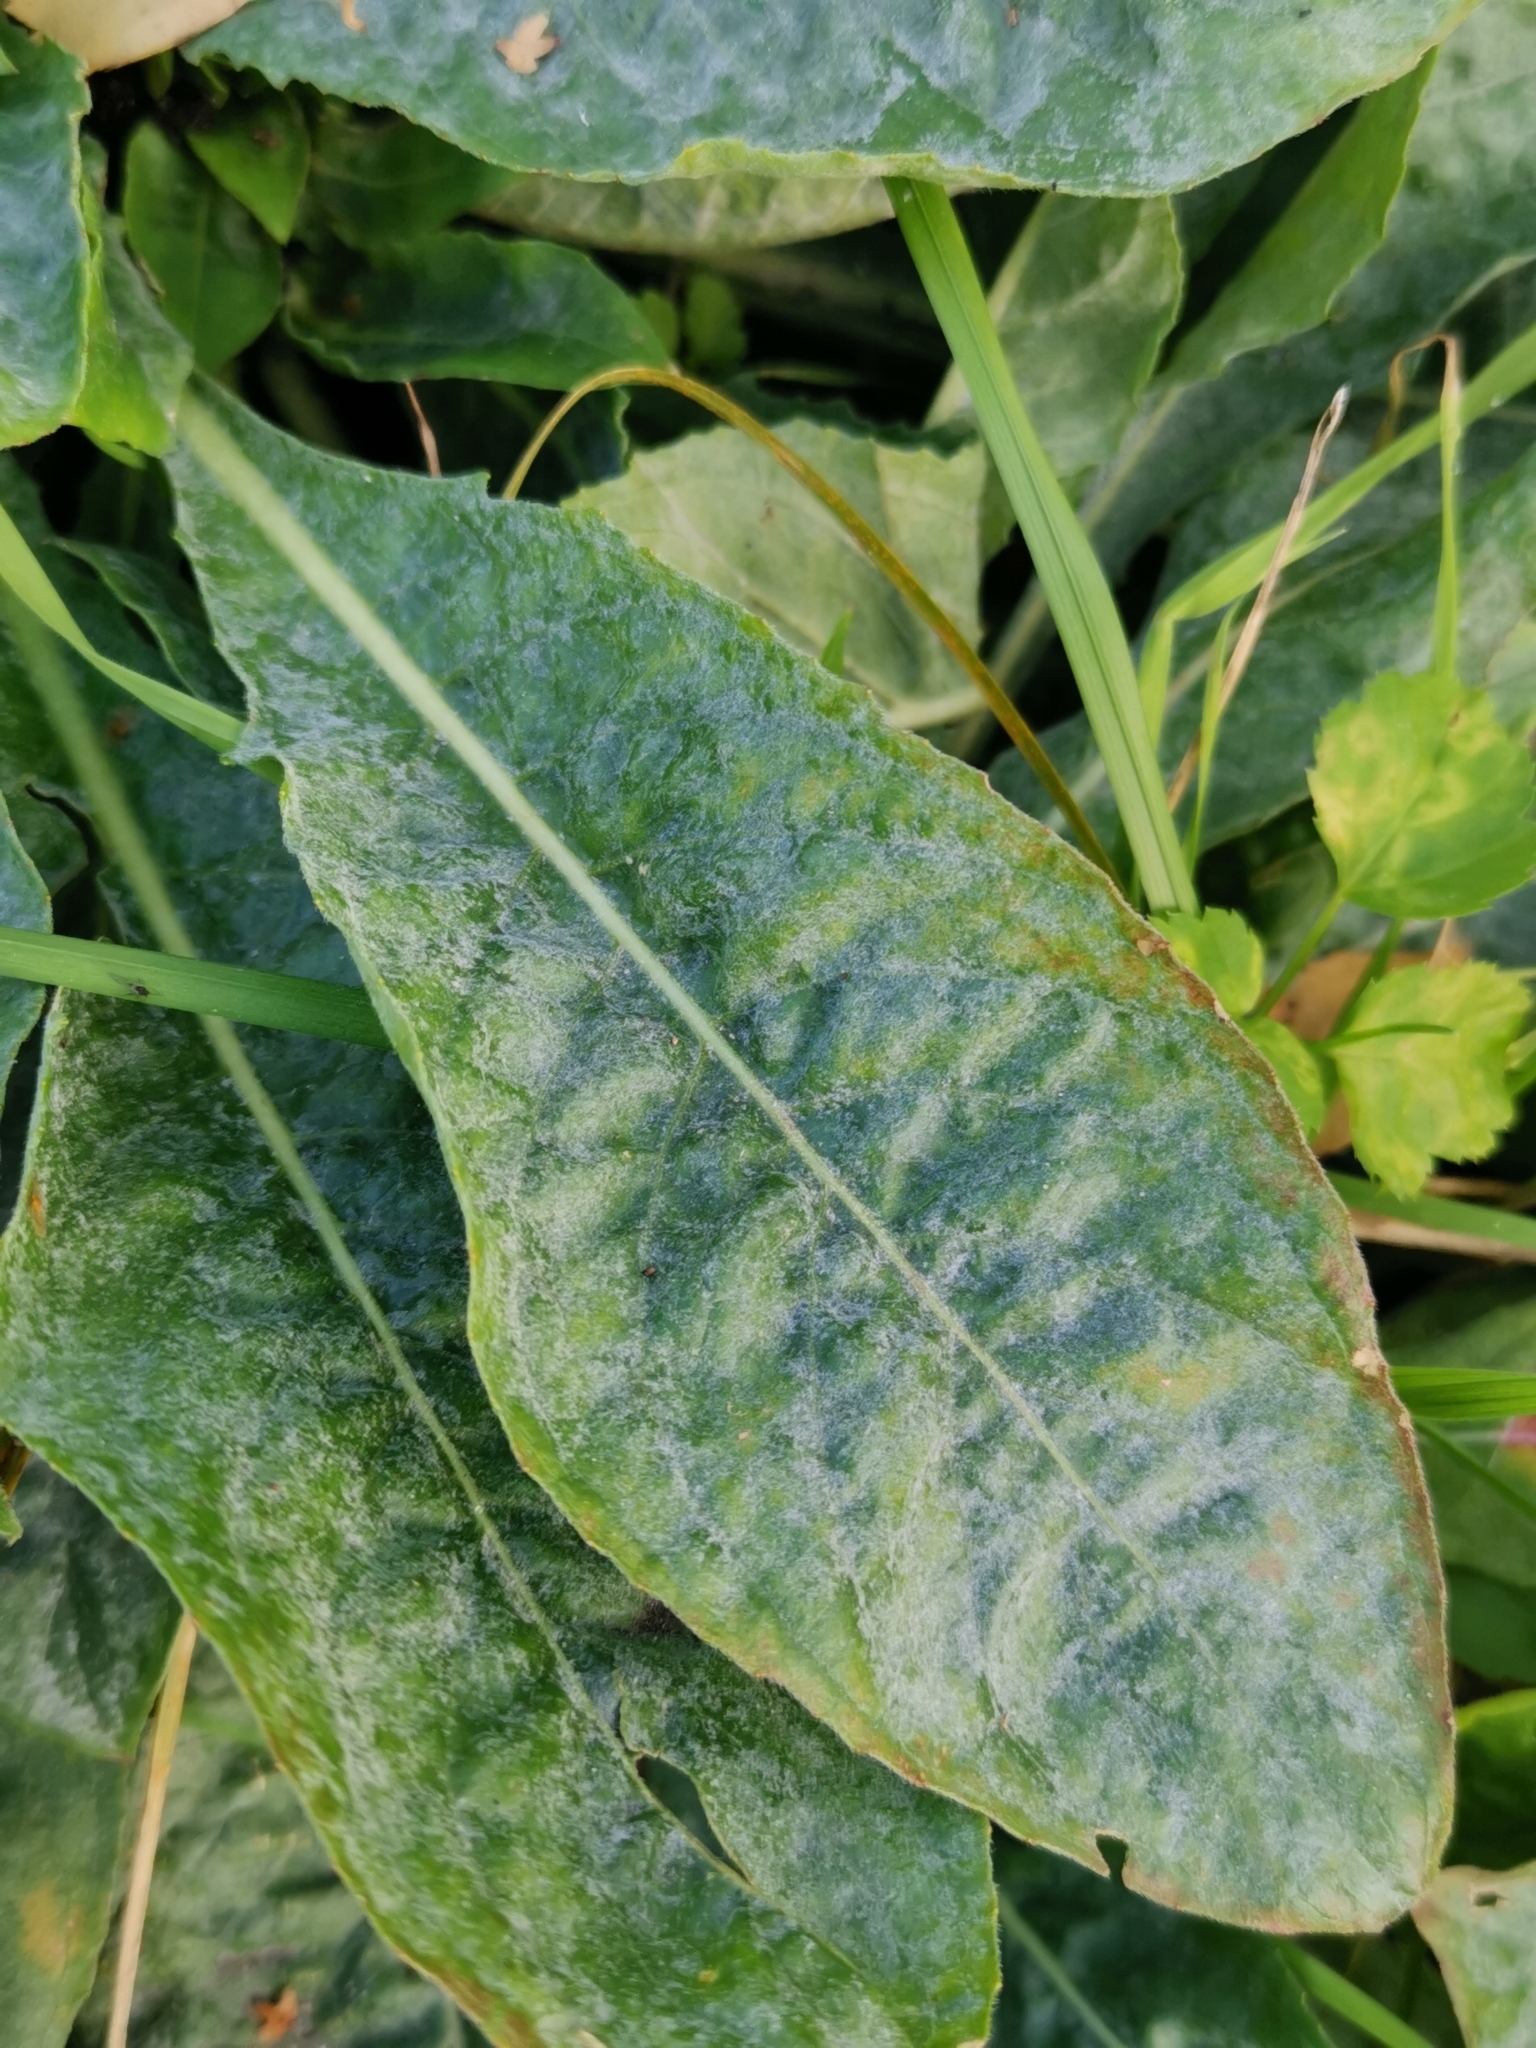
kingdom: Fungi
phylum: Ascomycota
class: Leotiomycetes
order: Helotiales
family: Erysiphaceae
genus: Erysiphe
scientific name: Erysiphe howeana
